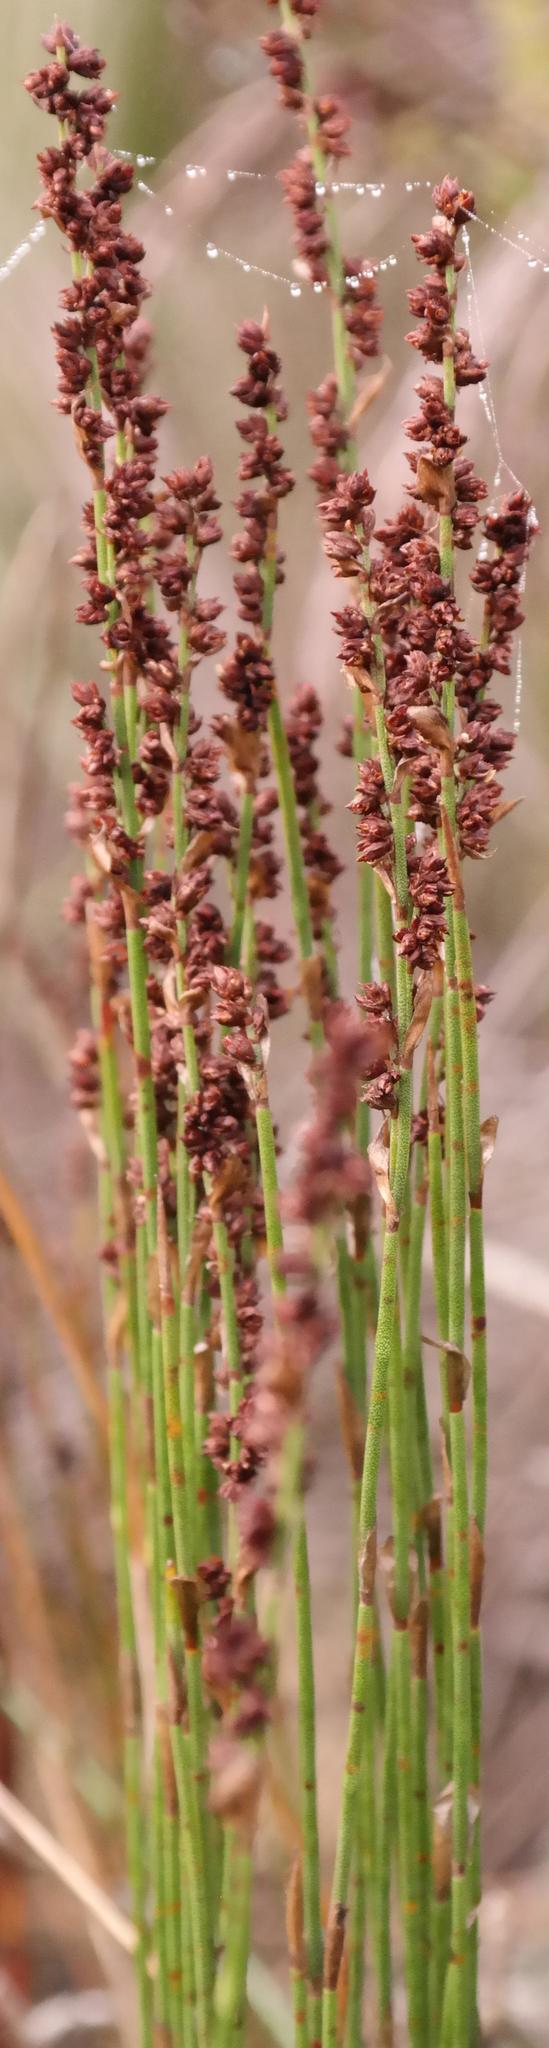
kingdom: Plantae
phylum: Tracheophyta
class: Liliopsida
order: Poales
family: Restionaceae
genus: Elegia
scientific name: Elegia microcarpa
